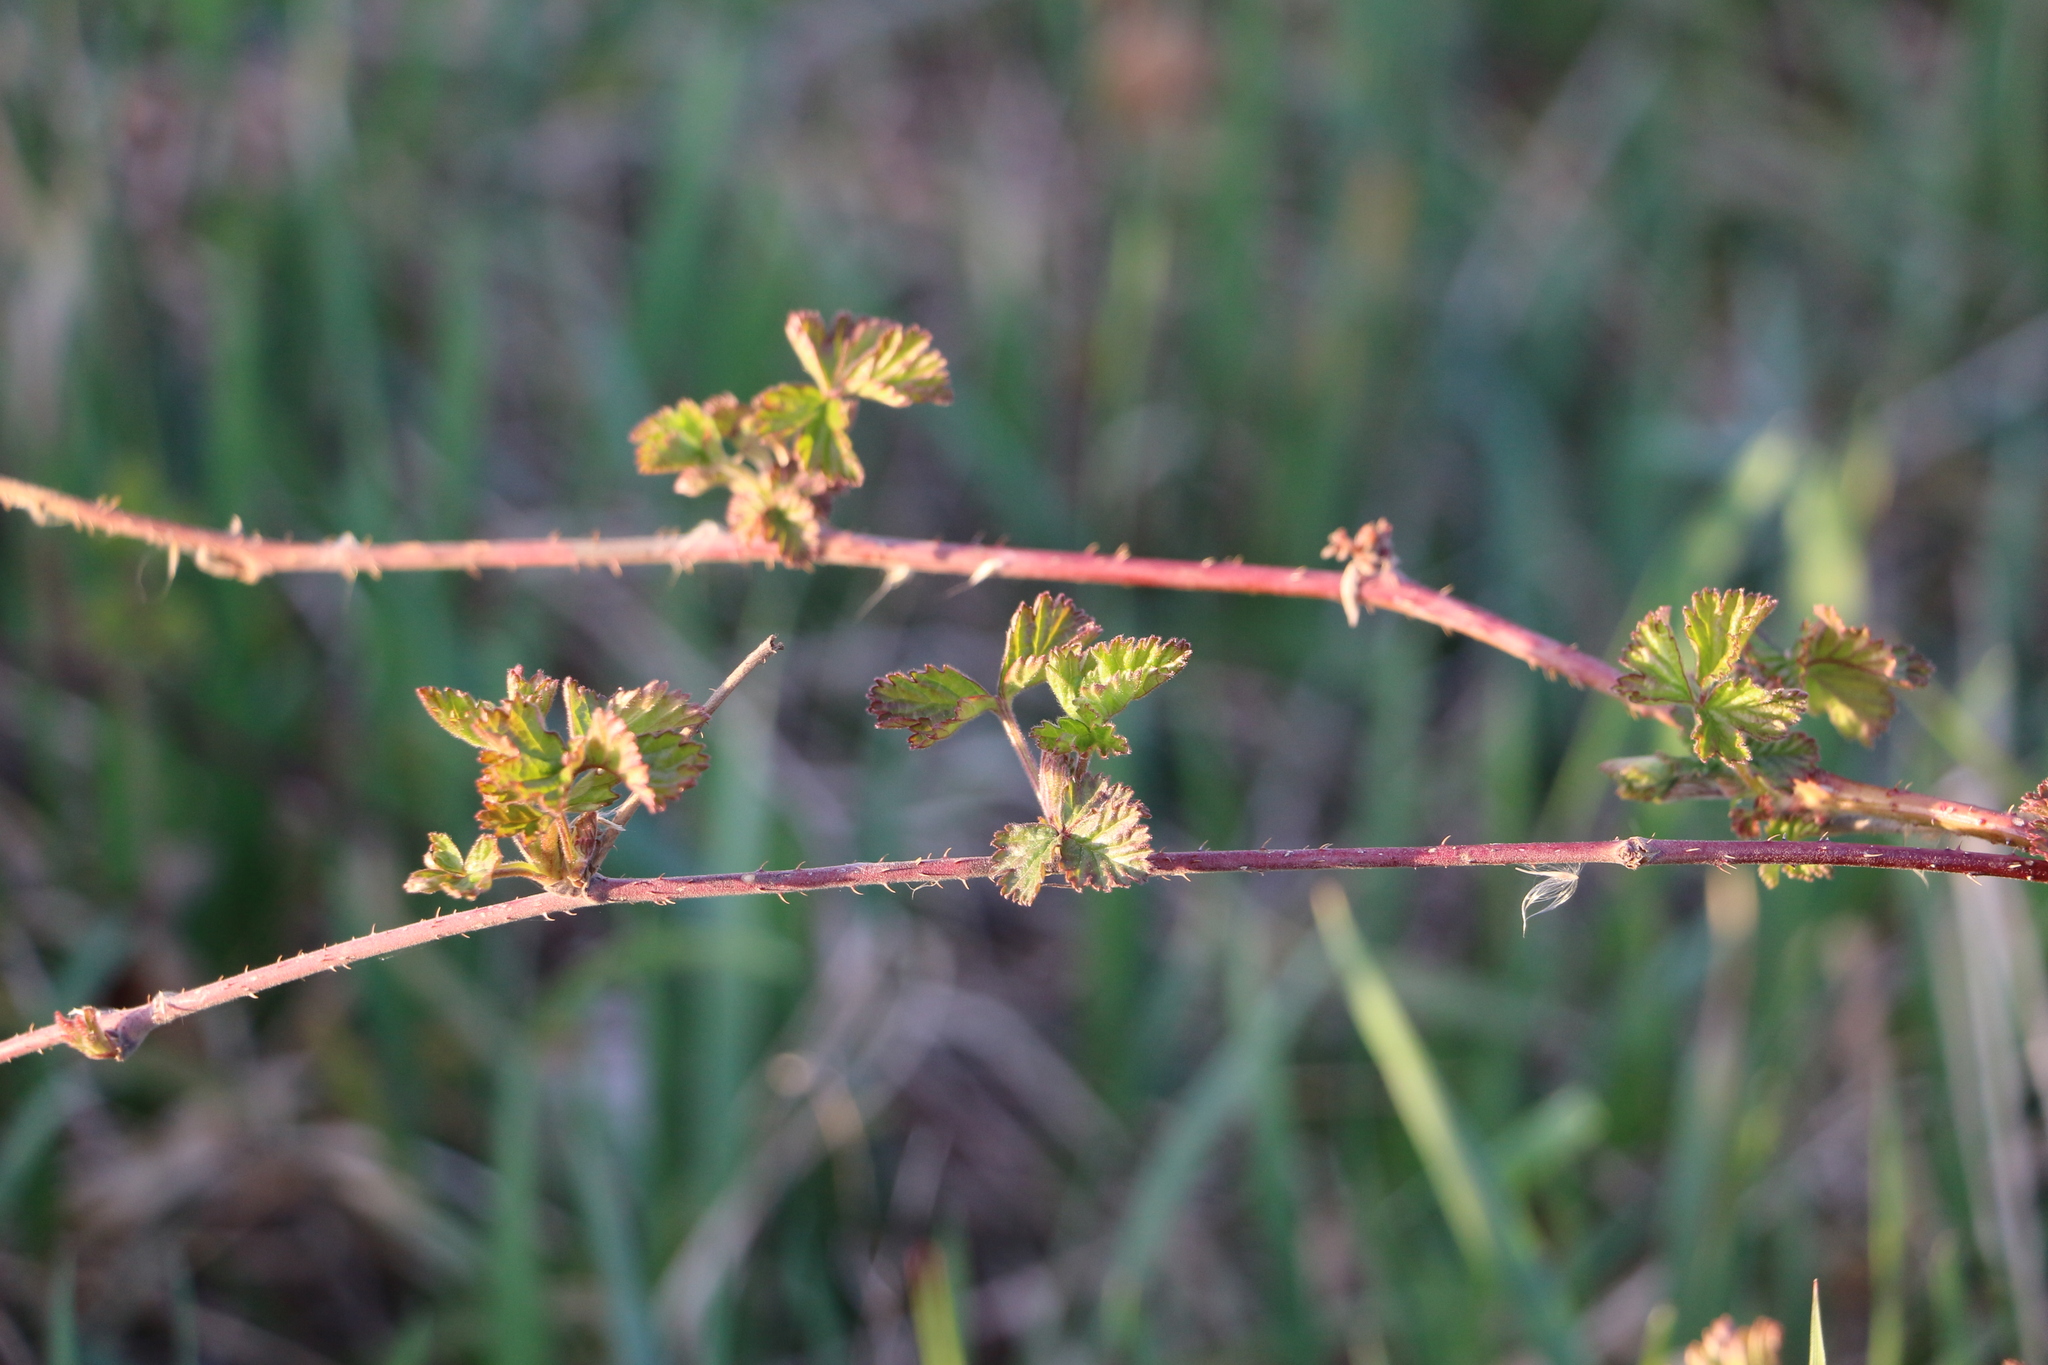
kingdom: Plantae
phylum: Tracheophyta
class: Magnoliopsida
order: Rosales
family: Rosaceae
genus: Rubus
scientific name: Rubus caesius
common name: Dewberry
